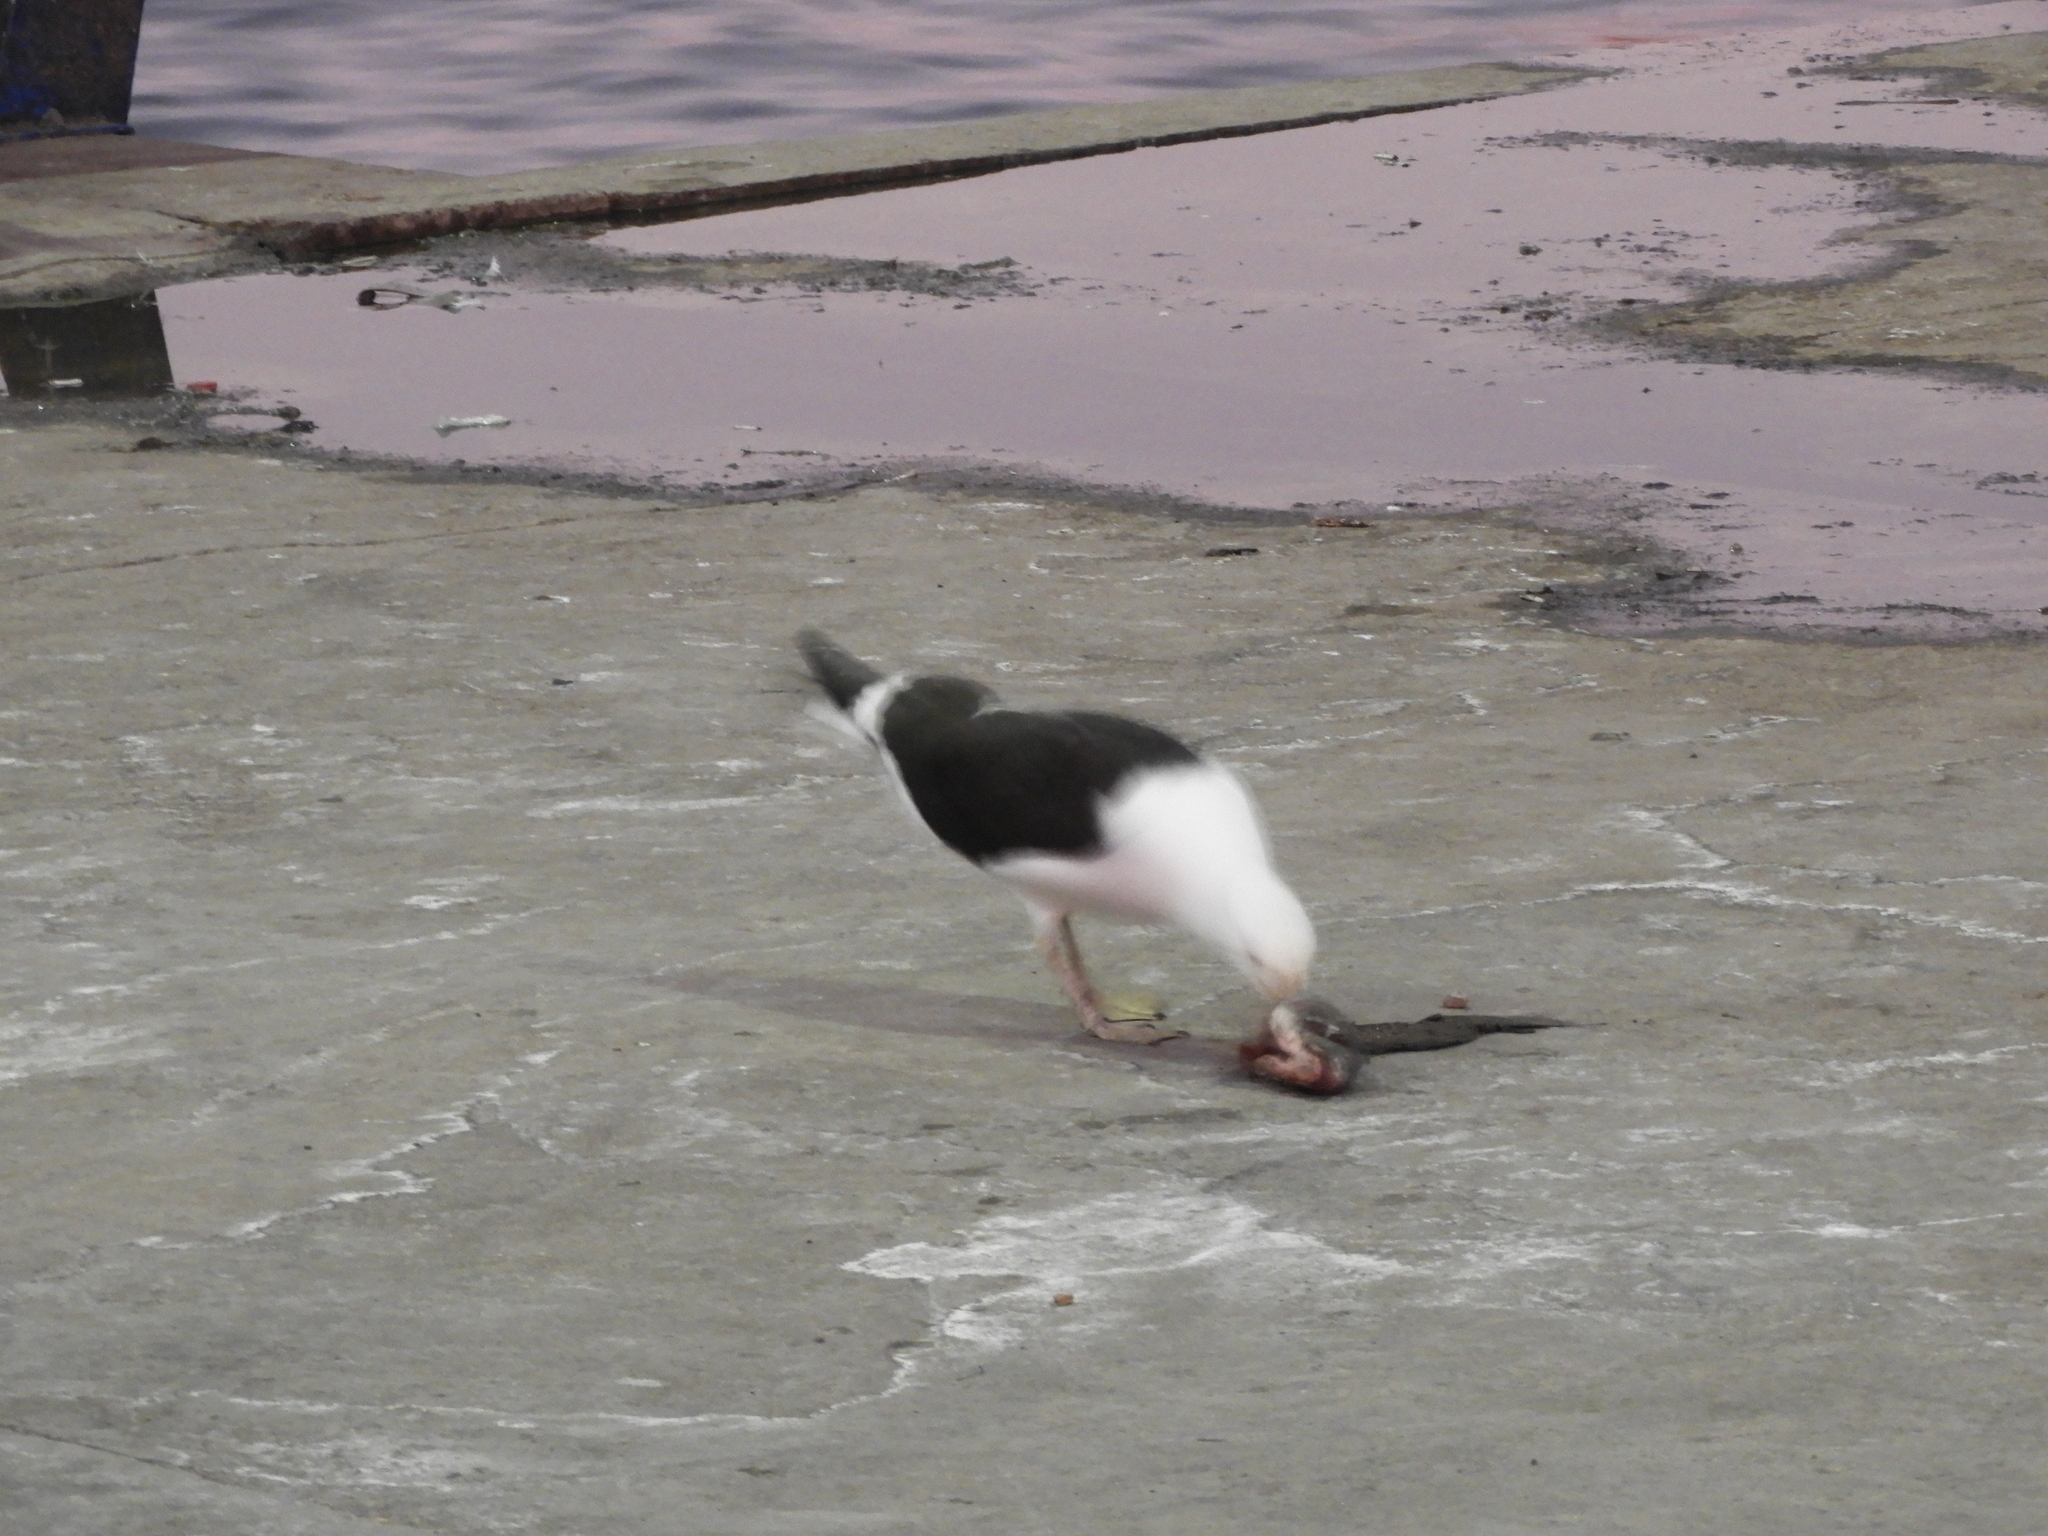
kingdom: Animalia
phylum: Chordata
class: Aves
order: Charadriiformes
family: Laridae
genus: Larus
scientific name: Larus dominicanus
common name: Kelp gull
